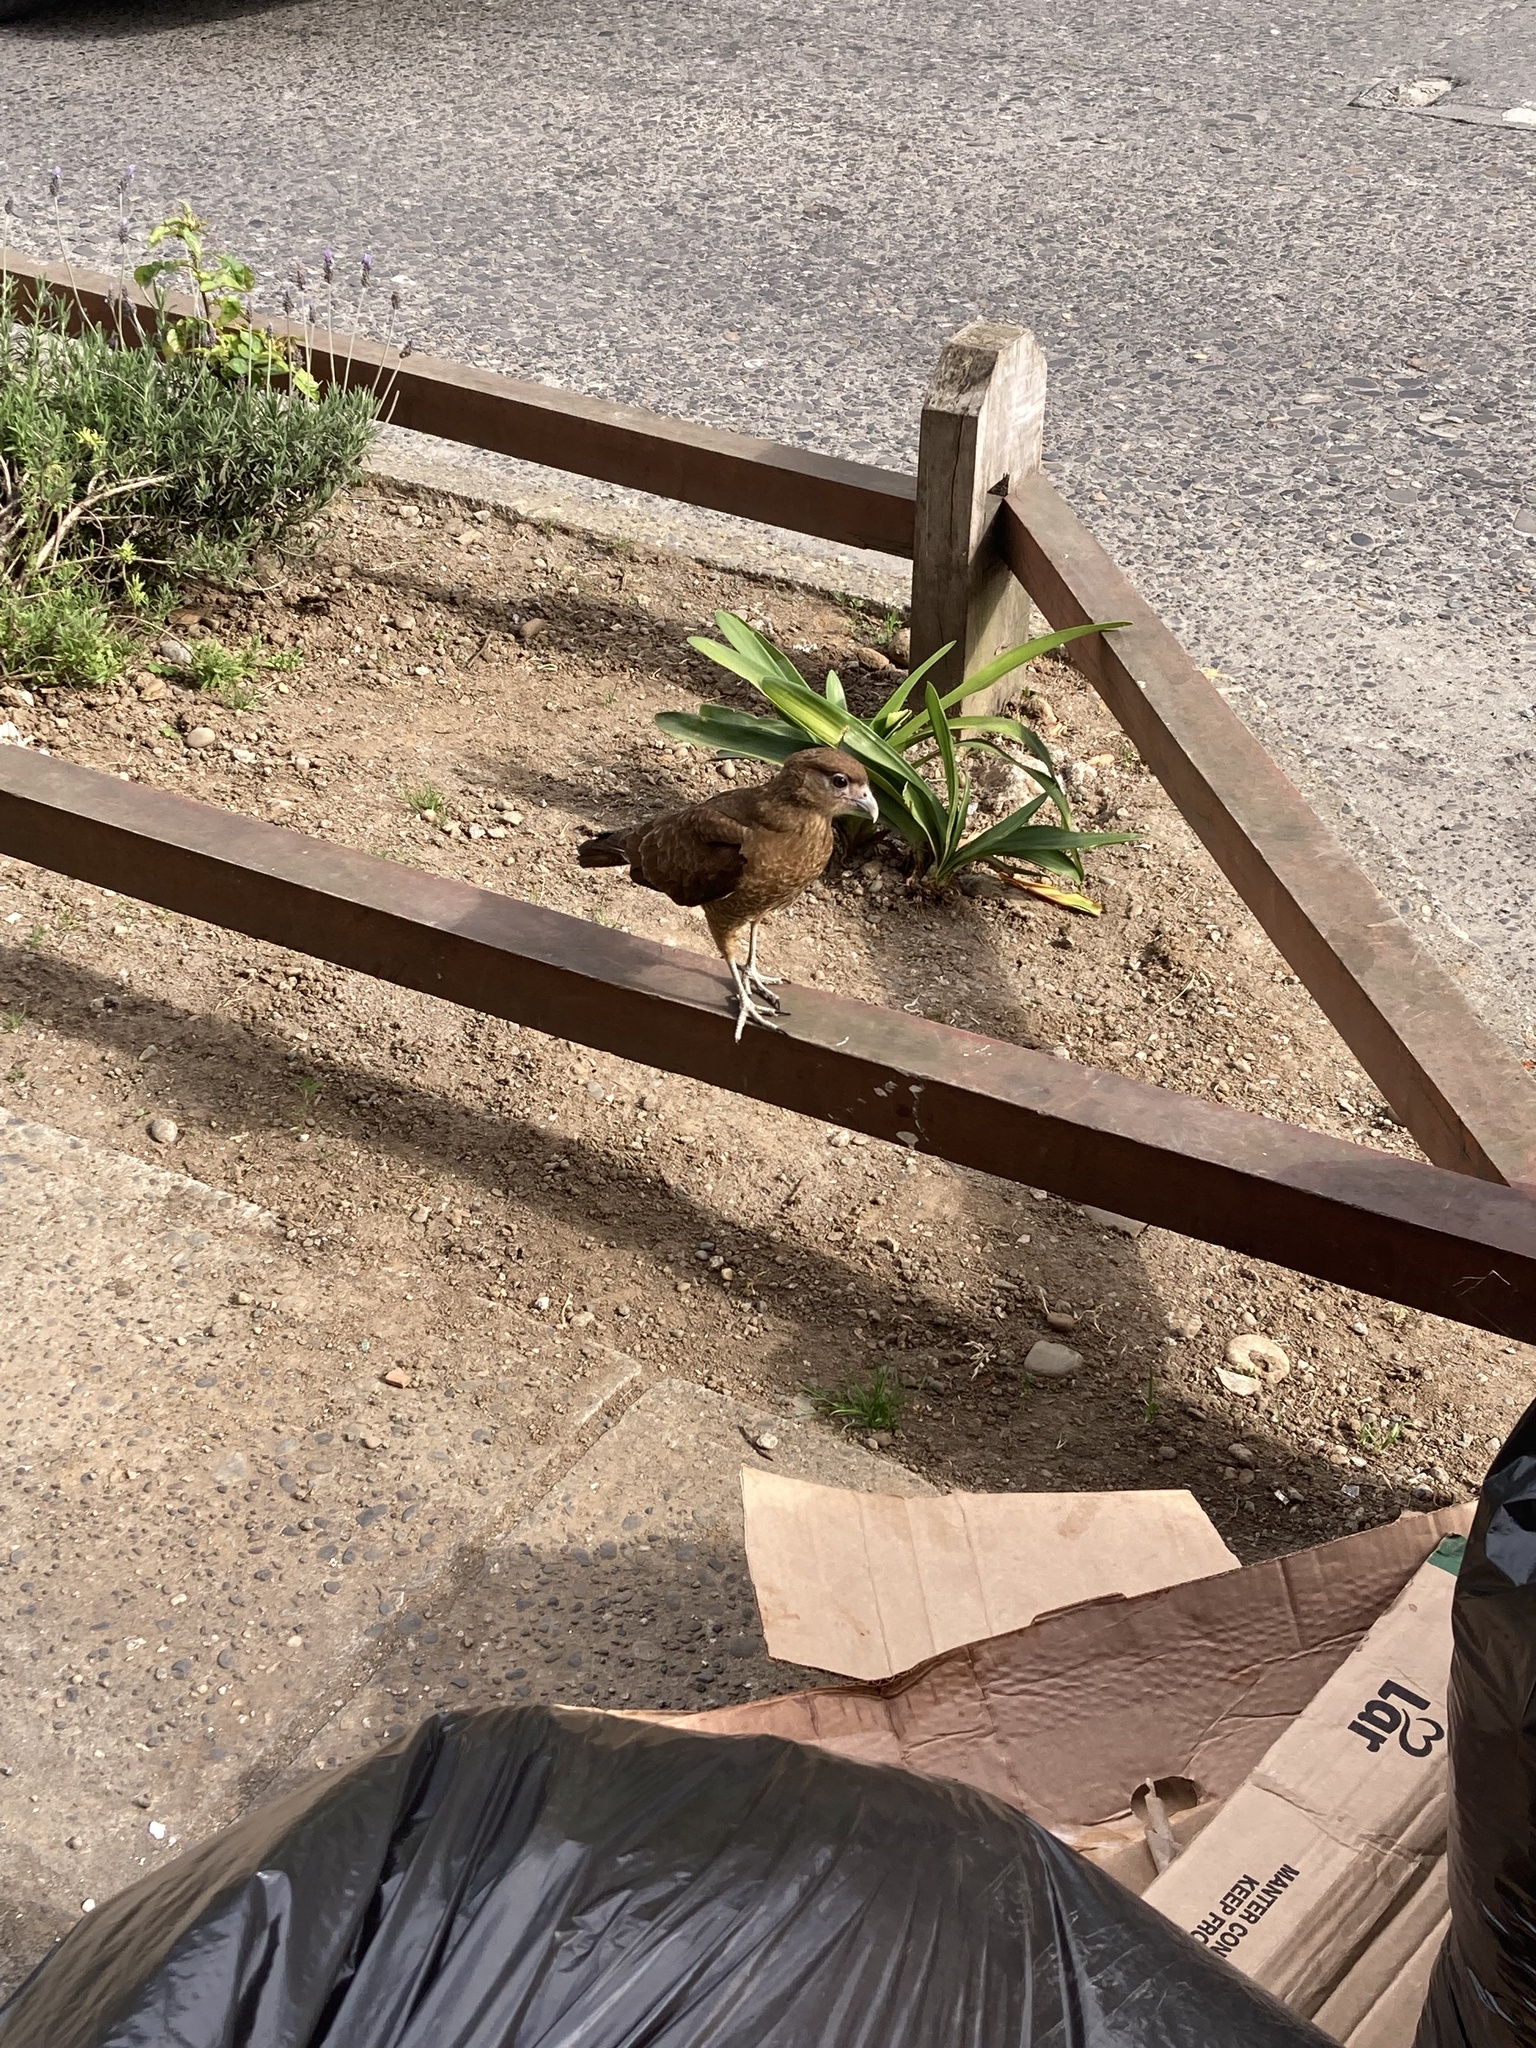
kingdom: Animalia
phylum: Chordata
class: Aves
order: Falconiformes
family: Falconidae
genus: Daptrius
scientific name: Daptrius
